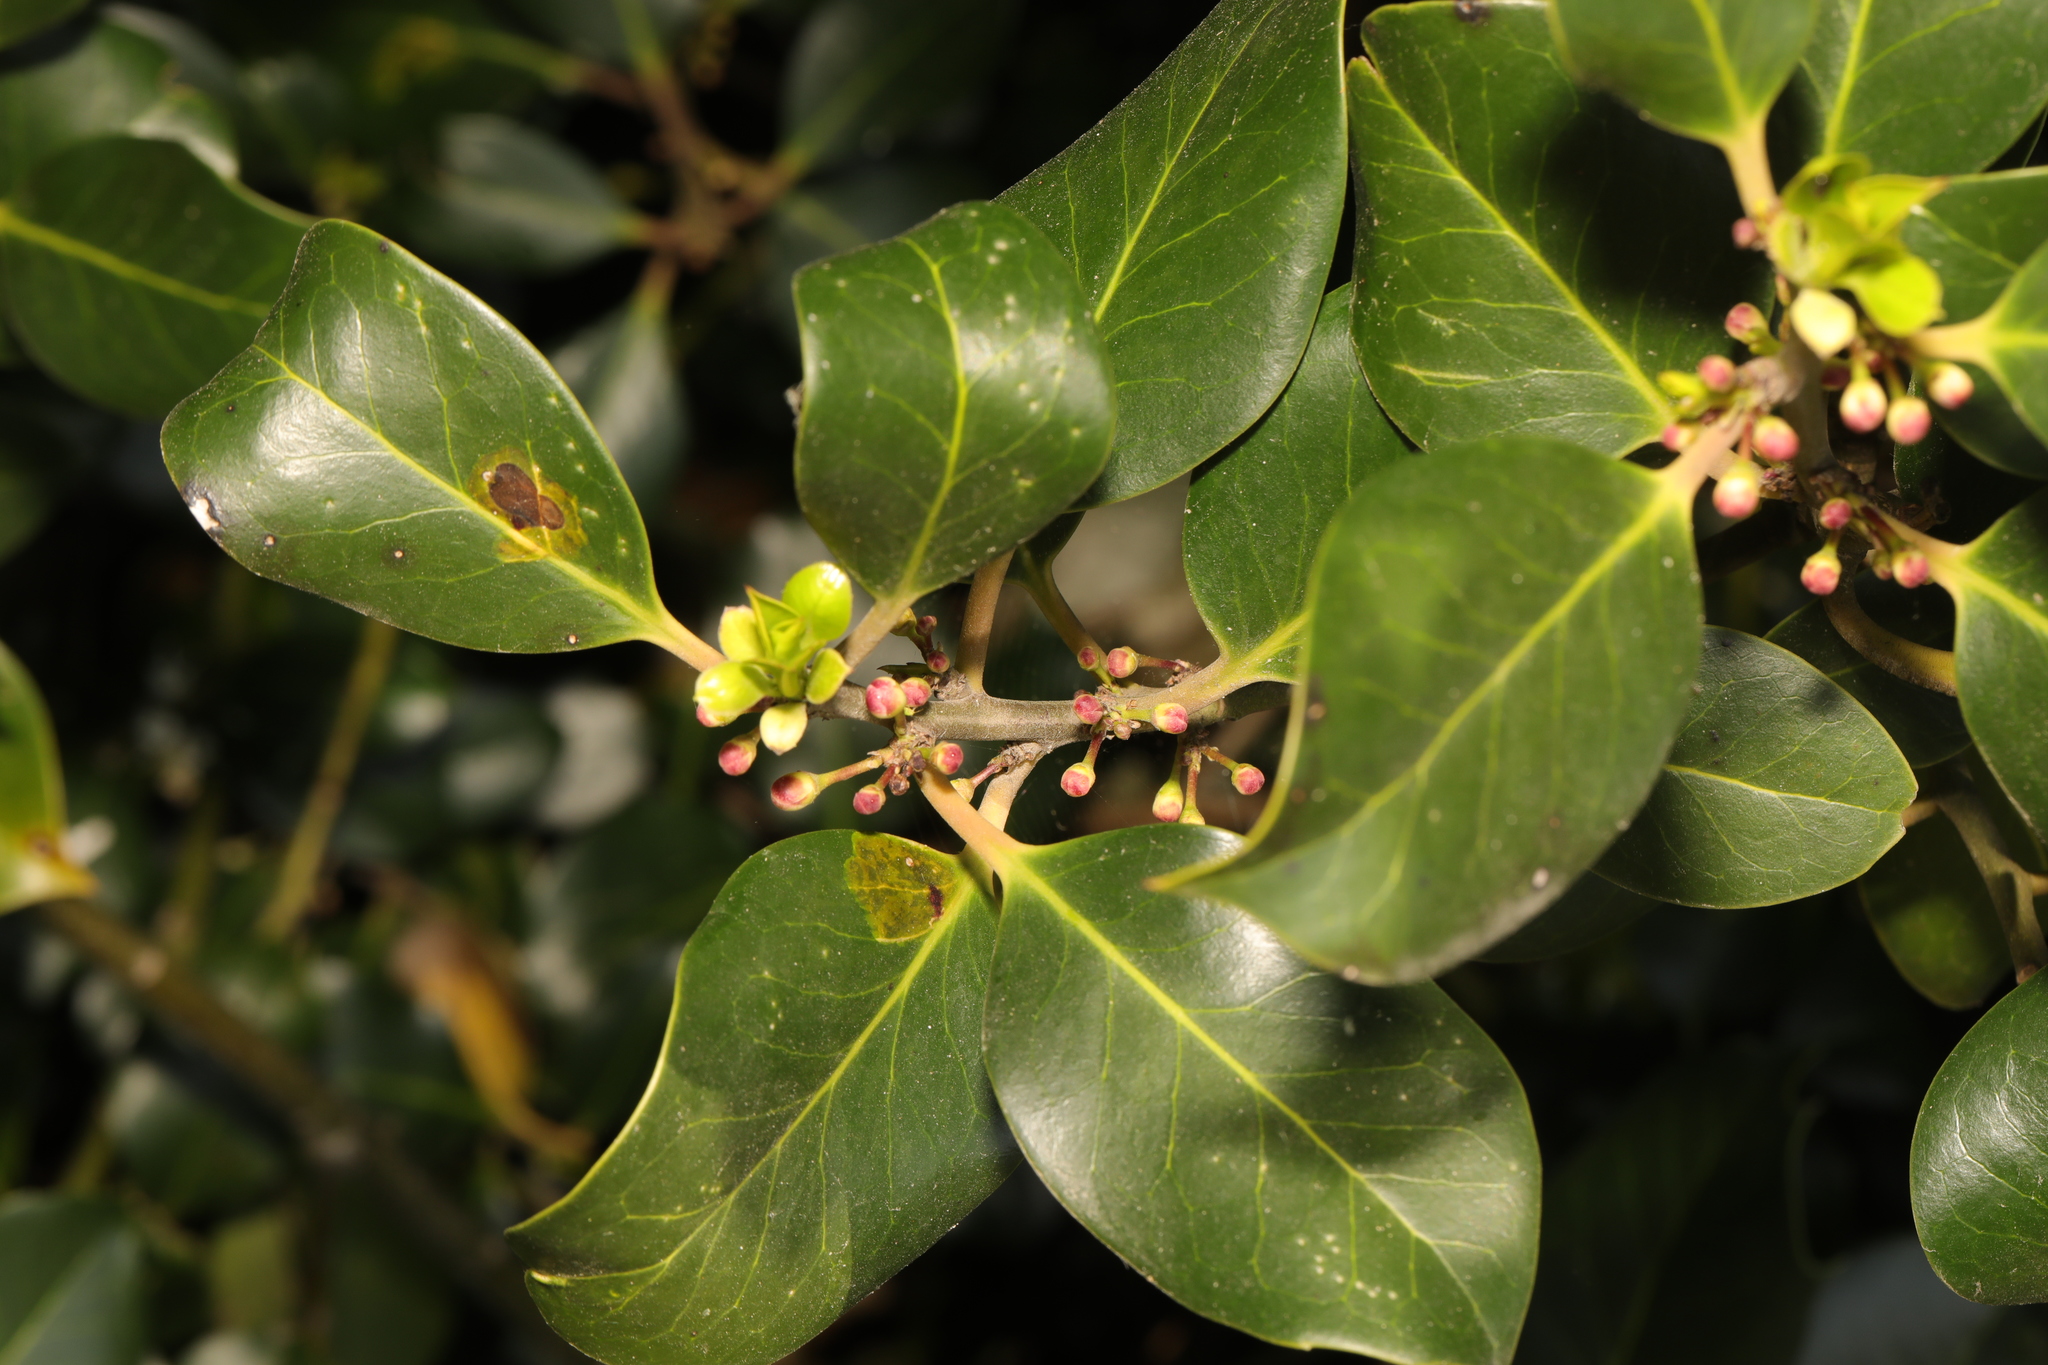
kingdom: Plantae
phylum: Tracheophyta
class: Magnoliopsida
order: Aquifoliales
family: Aquifoliaceae
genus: Ilex
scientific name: Ilex aquifolium
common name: English holly
